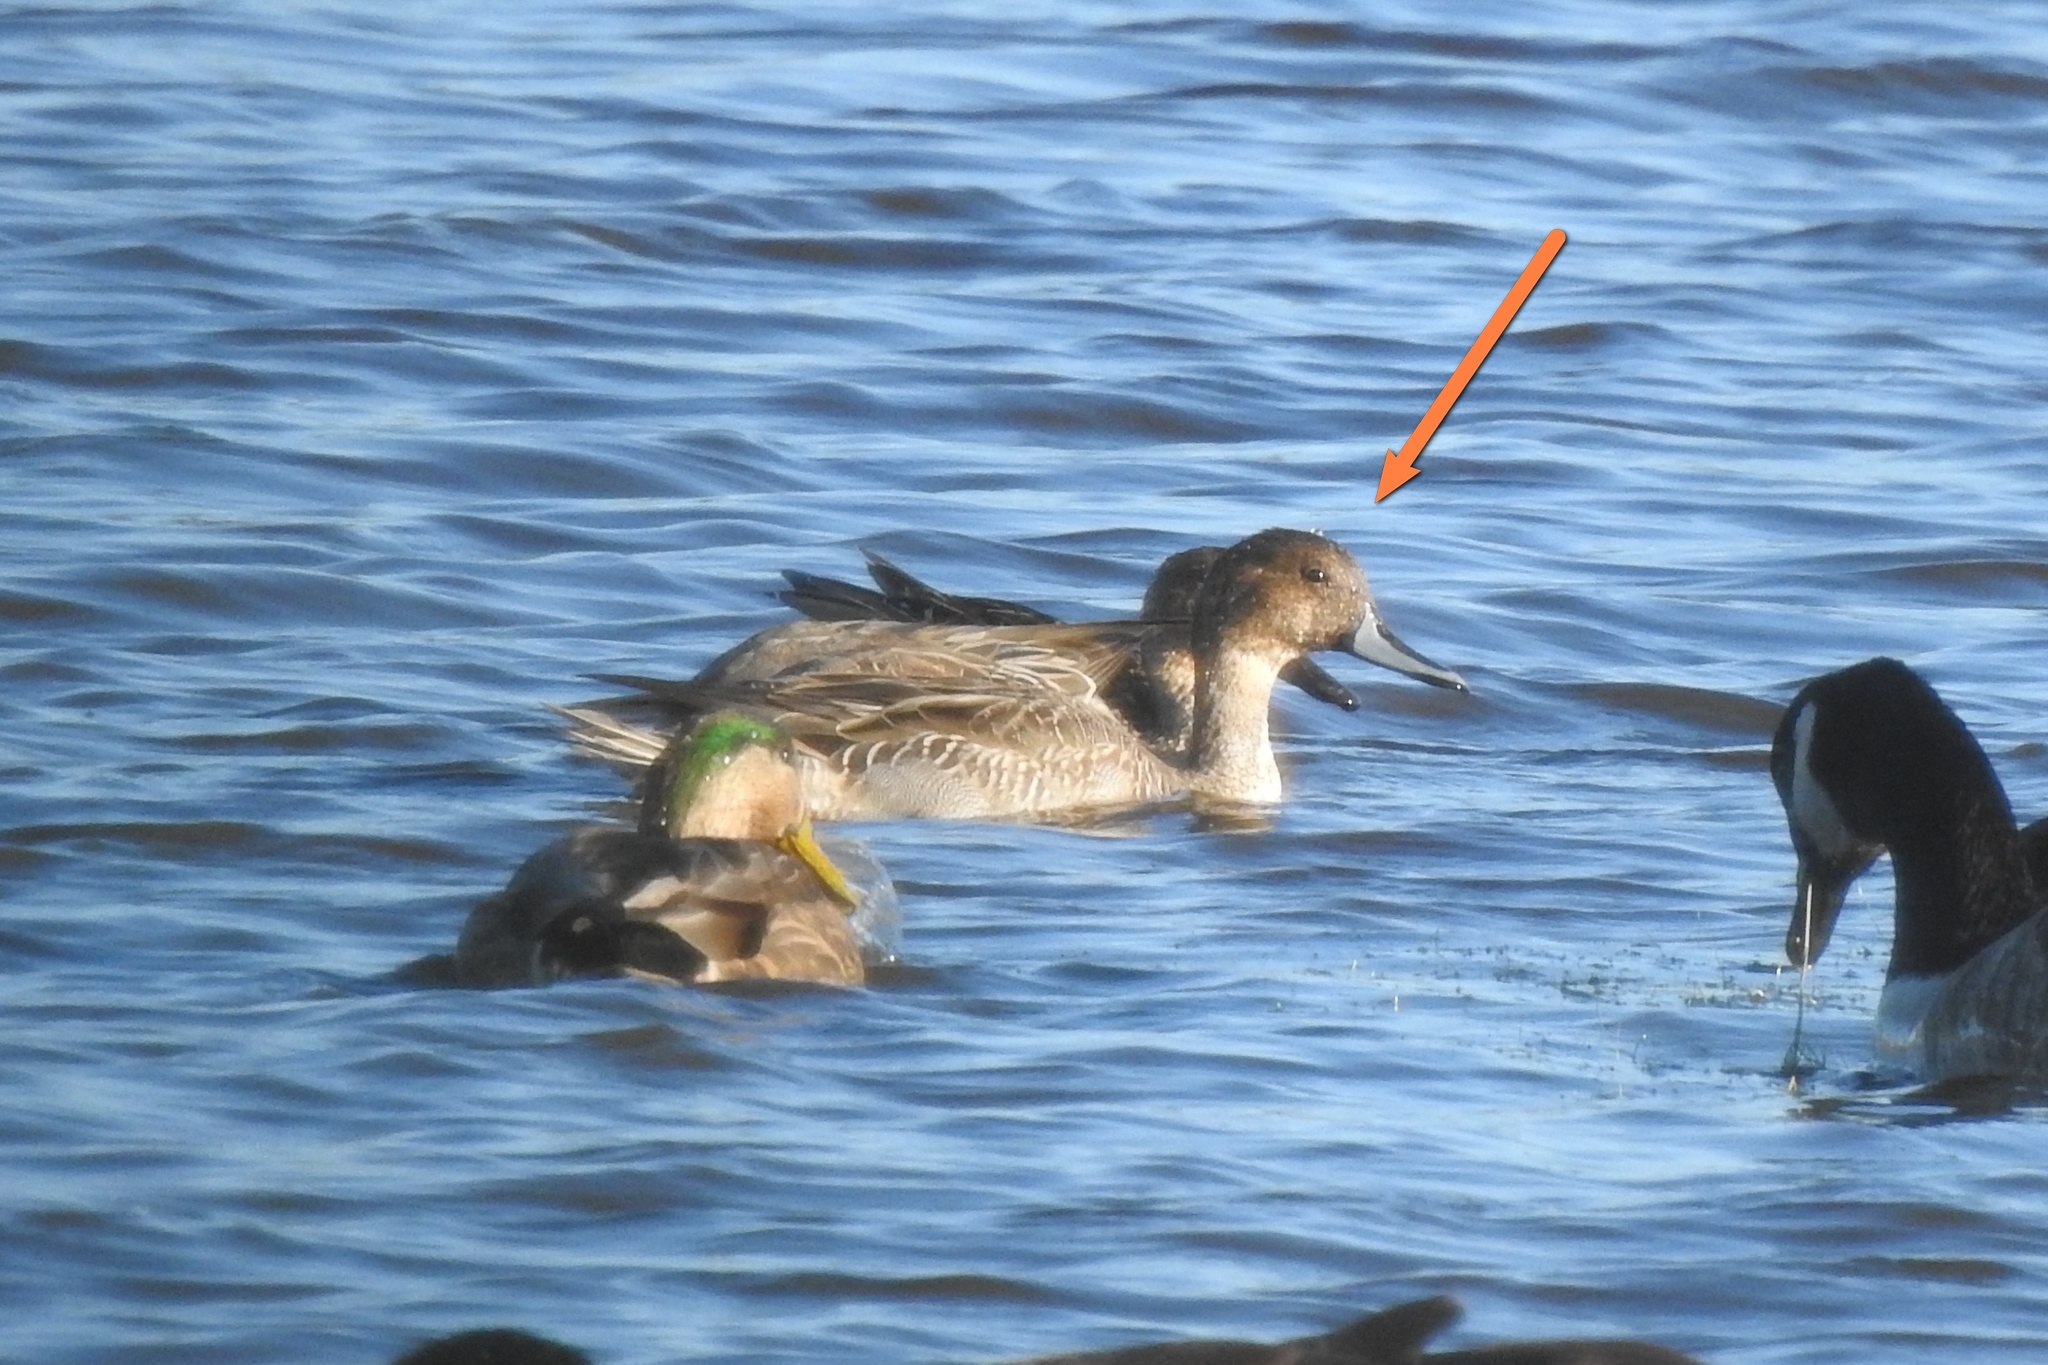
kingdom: Animalia
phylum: Chordata
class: Aves
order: Anseriformes
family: Anatidae
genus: Anas
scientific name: Anas acuta
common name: Northern pintail
